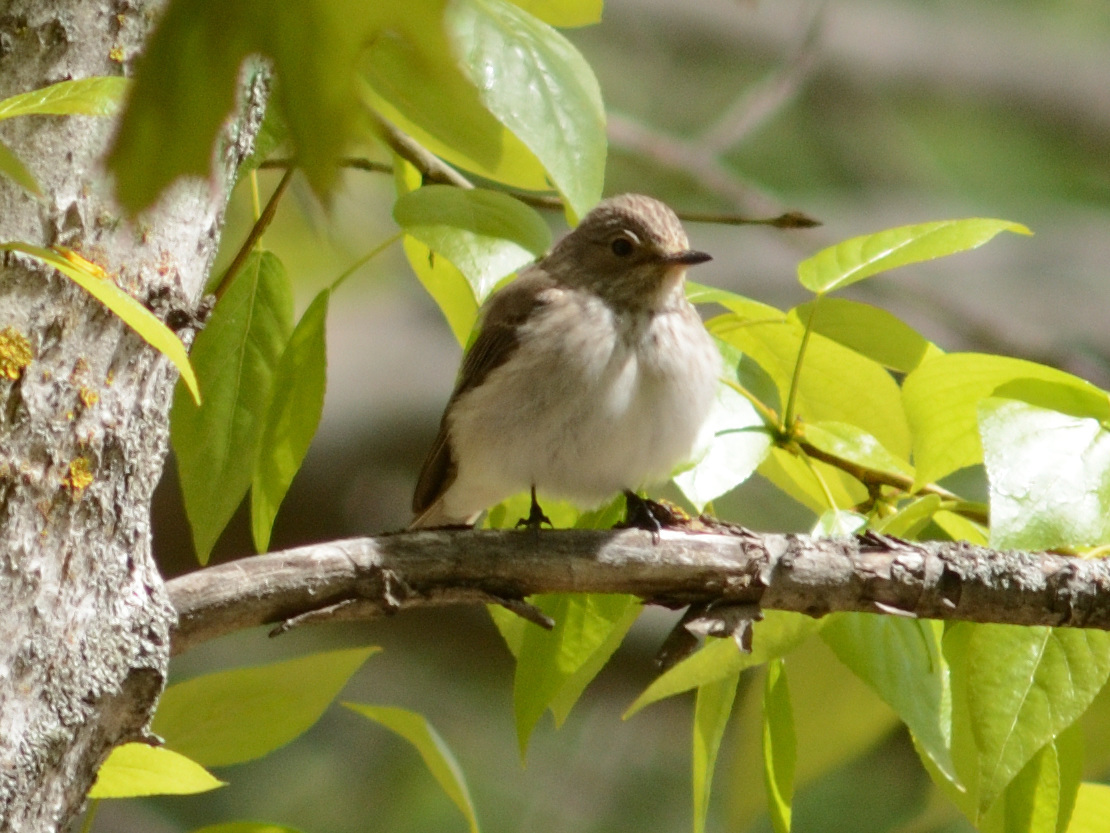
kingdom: Animalia
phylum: Chordata
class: Aves
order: Passeriformes
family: Muscicapidae
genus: Muscicapa
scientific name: Muscicapa striata
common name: Spotted flycatcher
